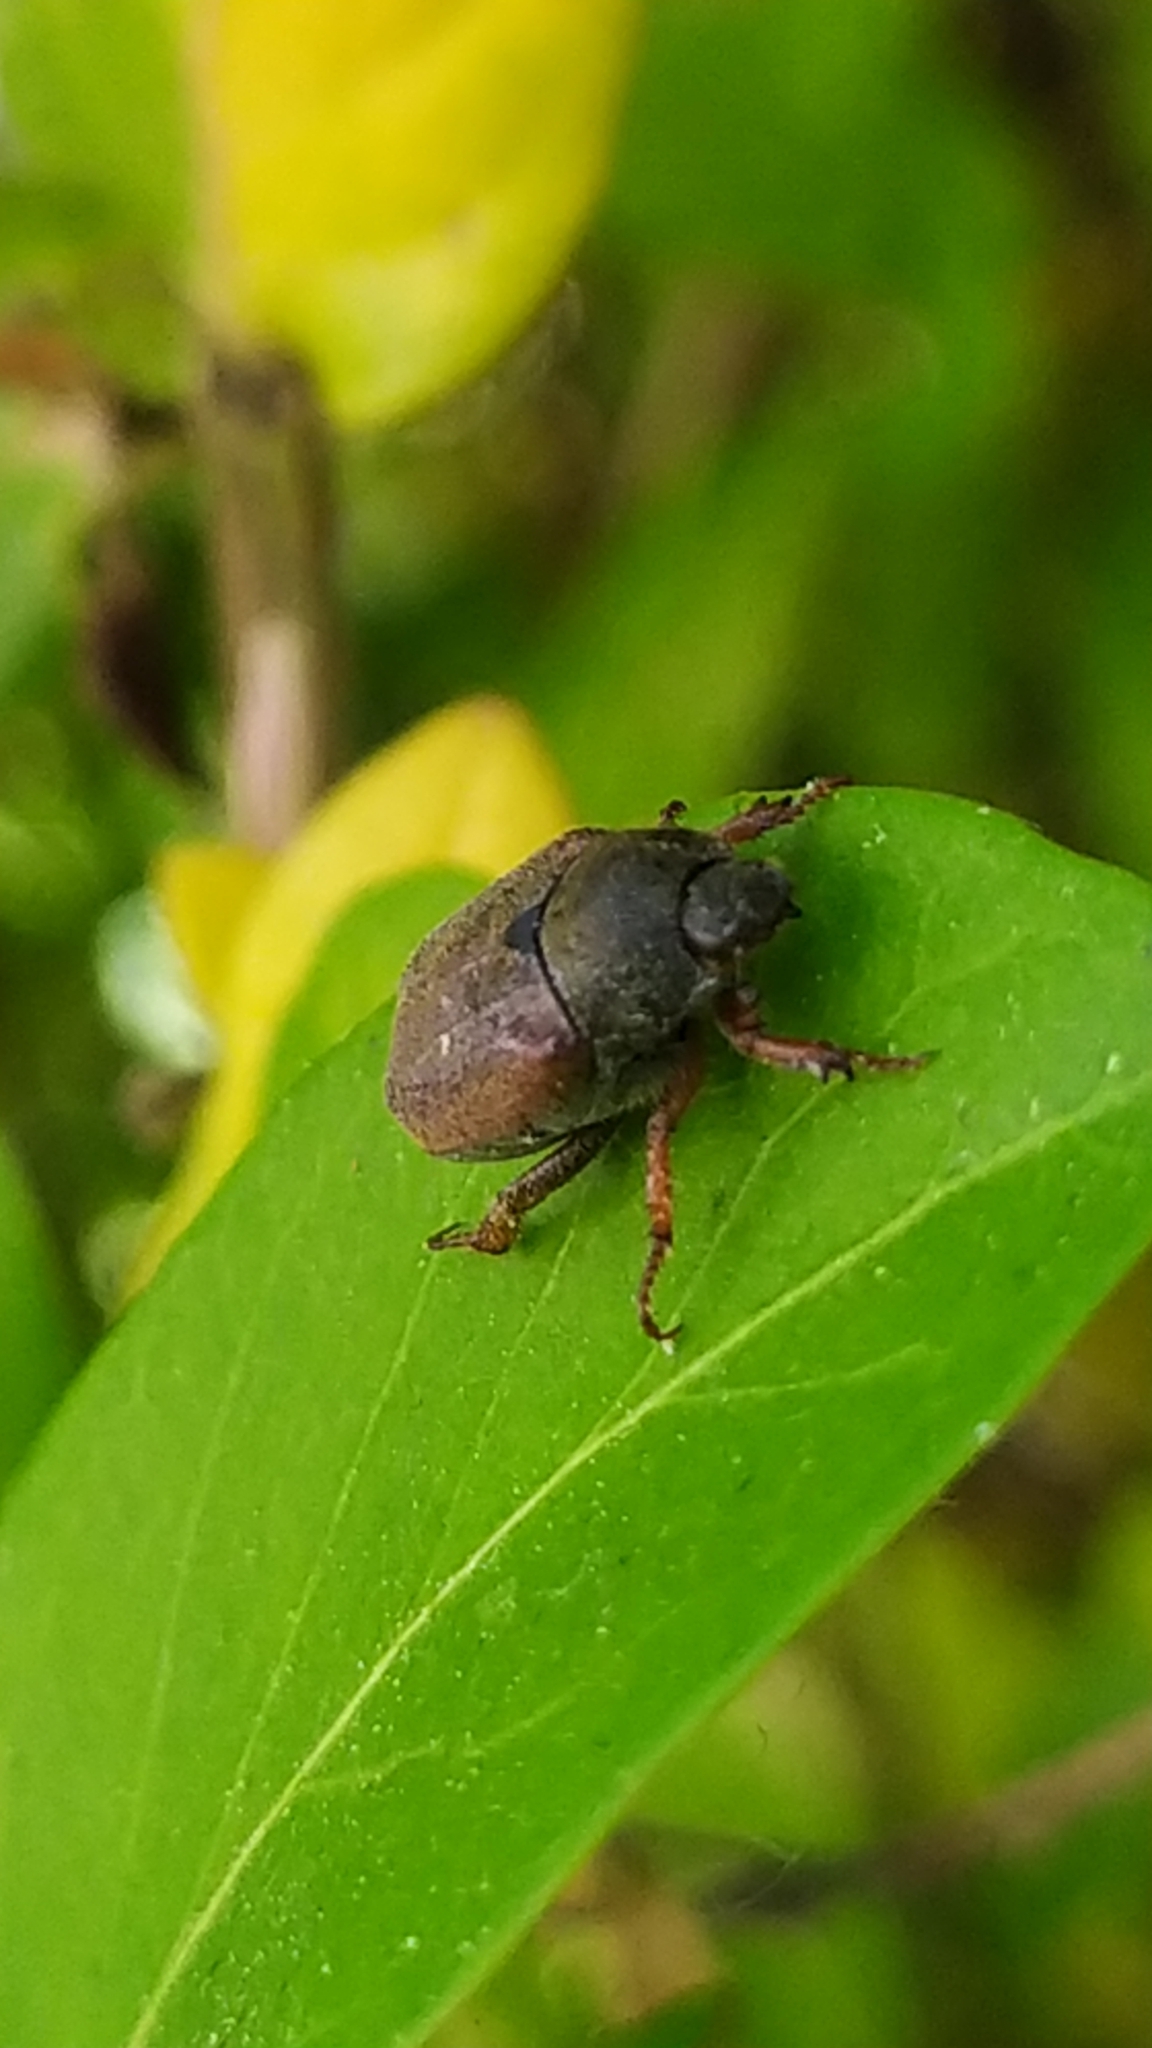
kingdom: Animalia
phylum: Arthropoda
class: Insecta
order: Coleoptera
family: Scarabaeidae
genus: Hoplia
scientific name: Hoplia philanthus
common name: Welsh chafer
